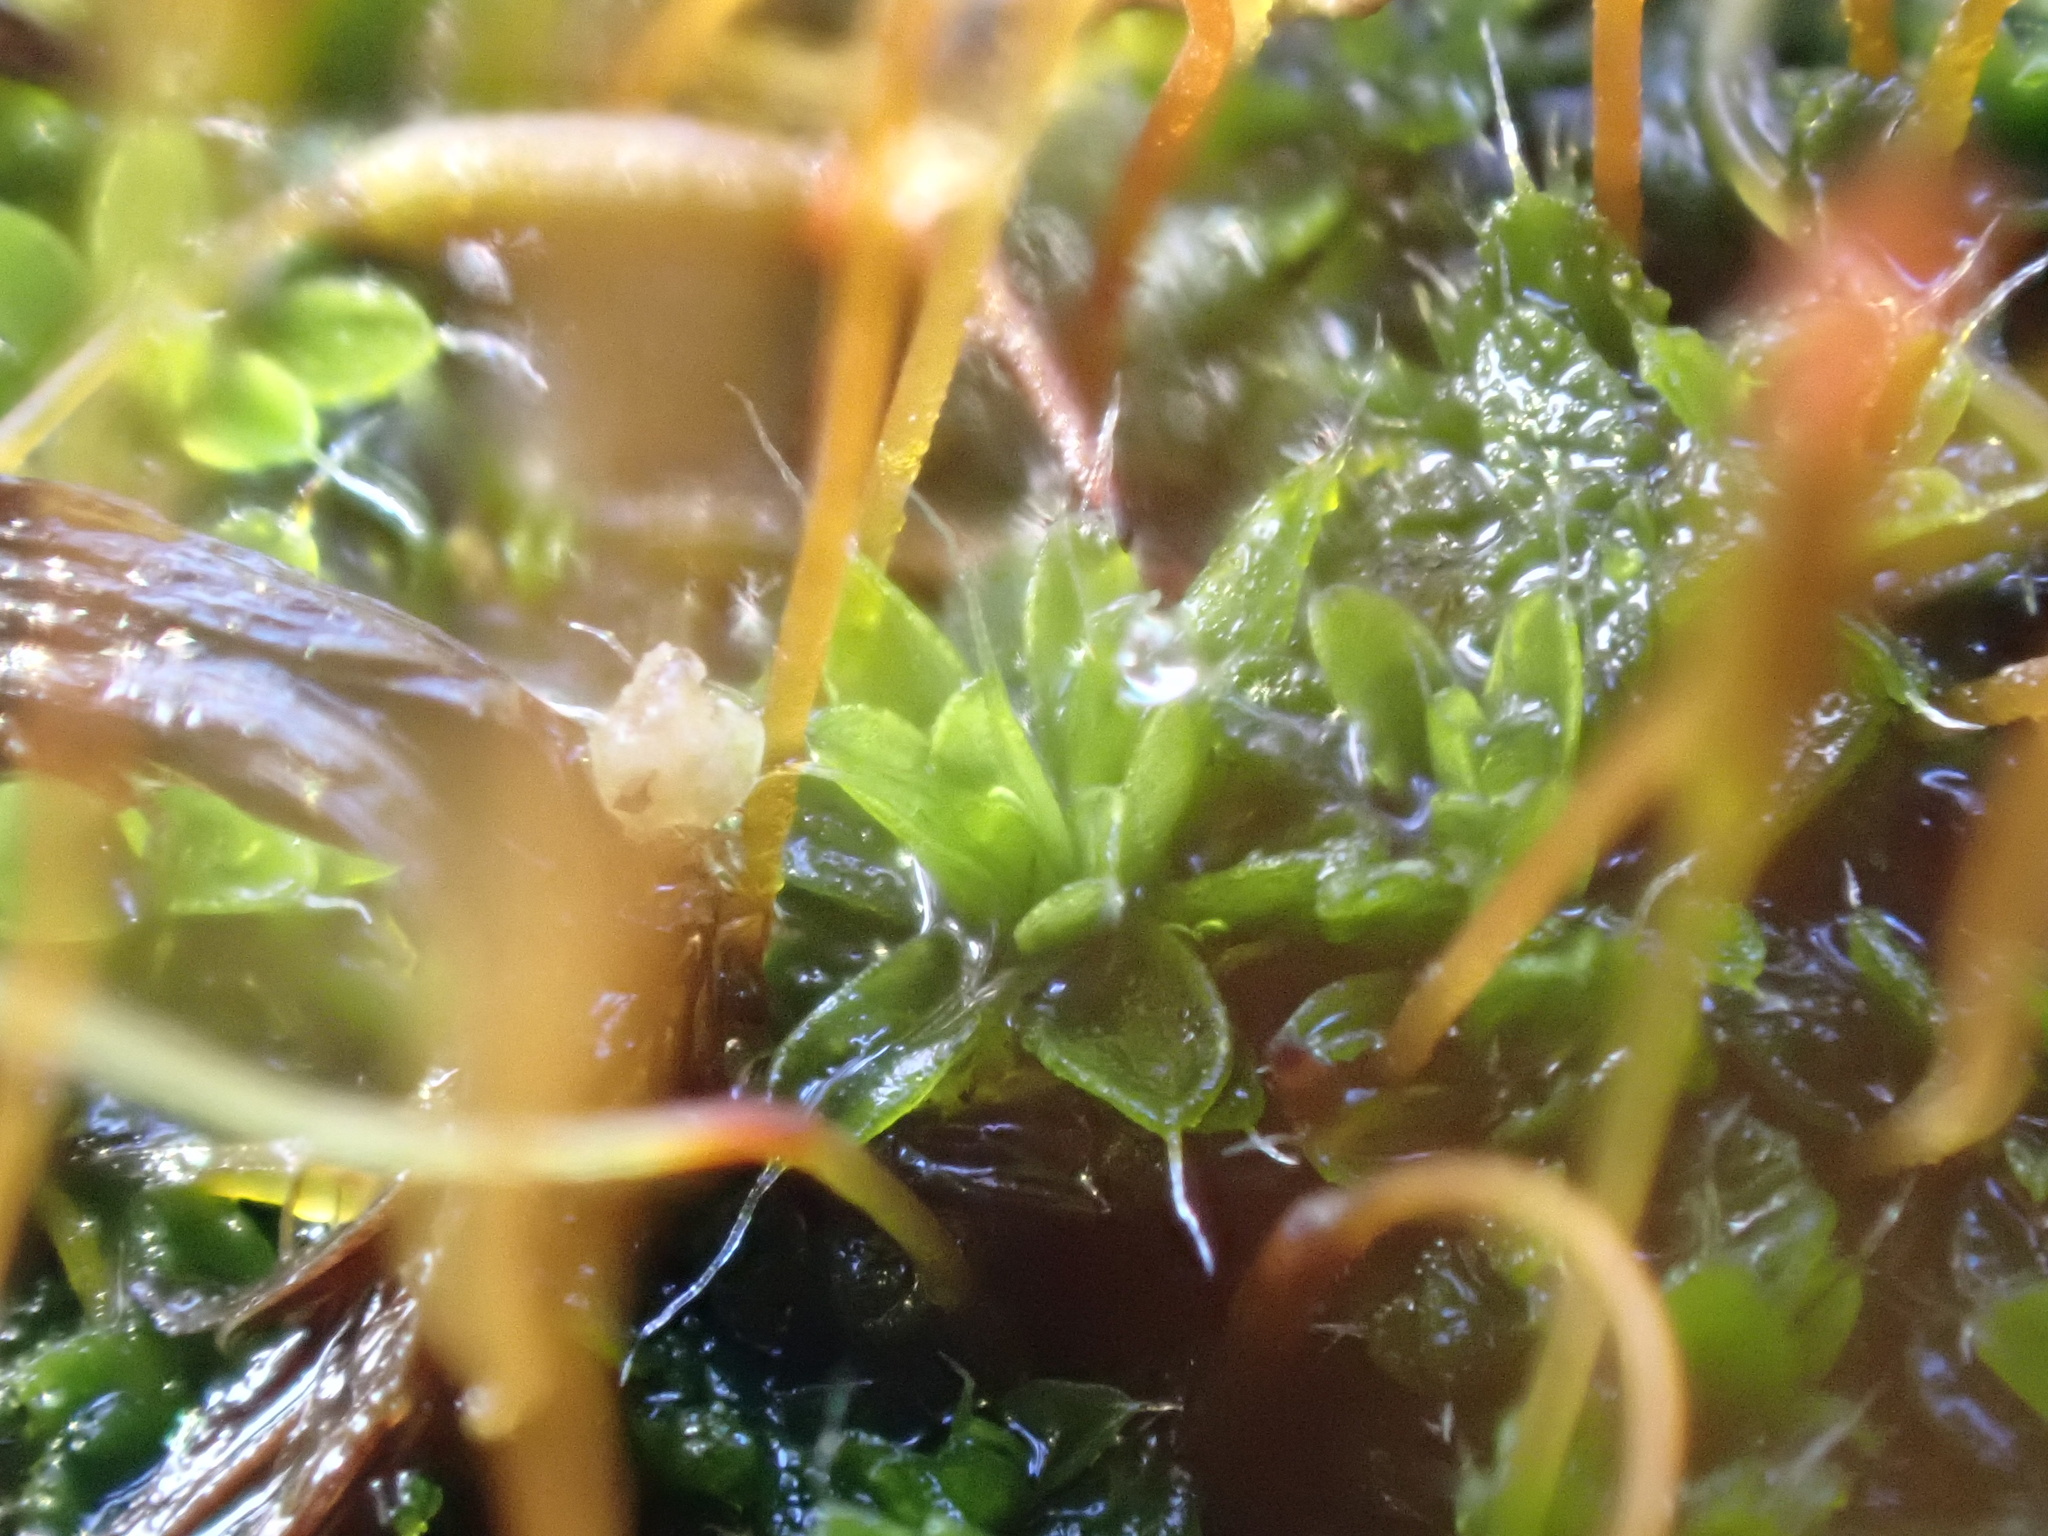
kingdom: Plantae
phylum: Bryophyta
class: Bryopsida
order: Pottiales
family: Pottiaceae
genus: Tortula
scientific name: Tortula muralis
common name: Wall screw-moss
